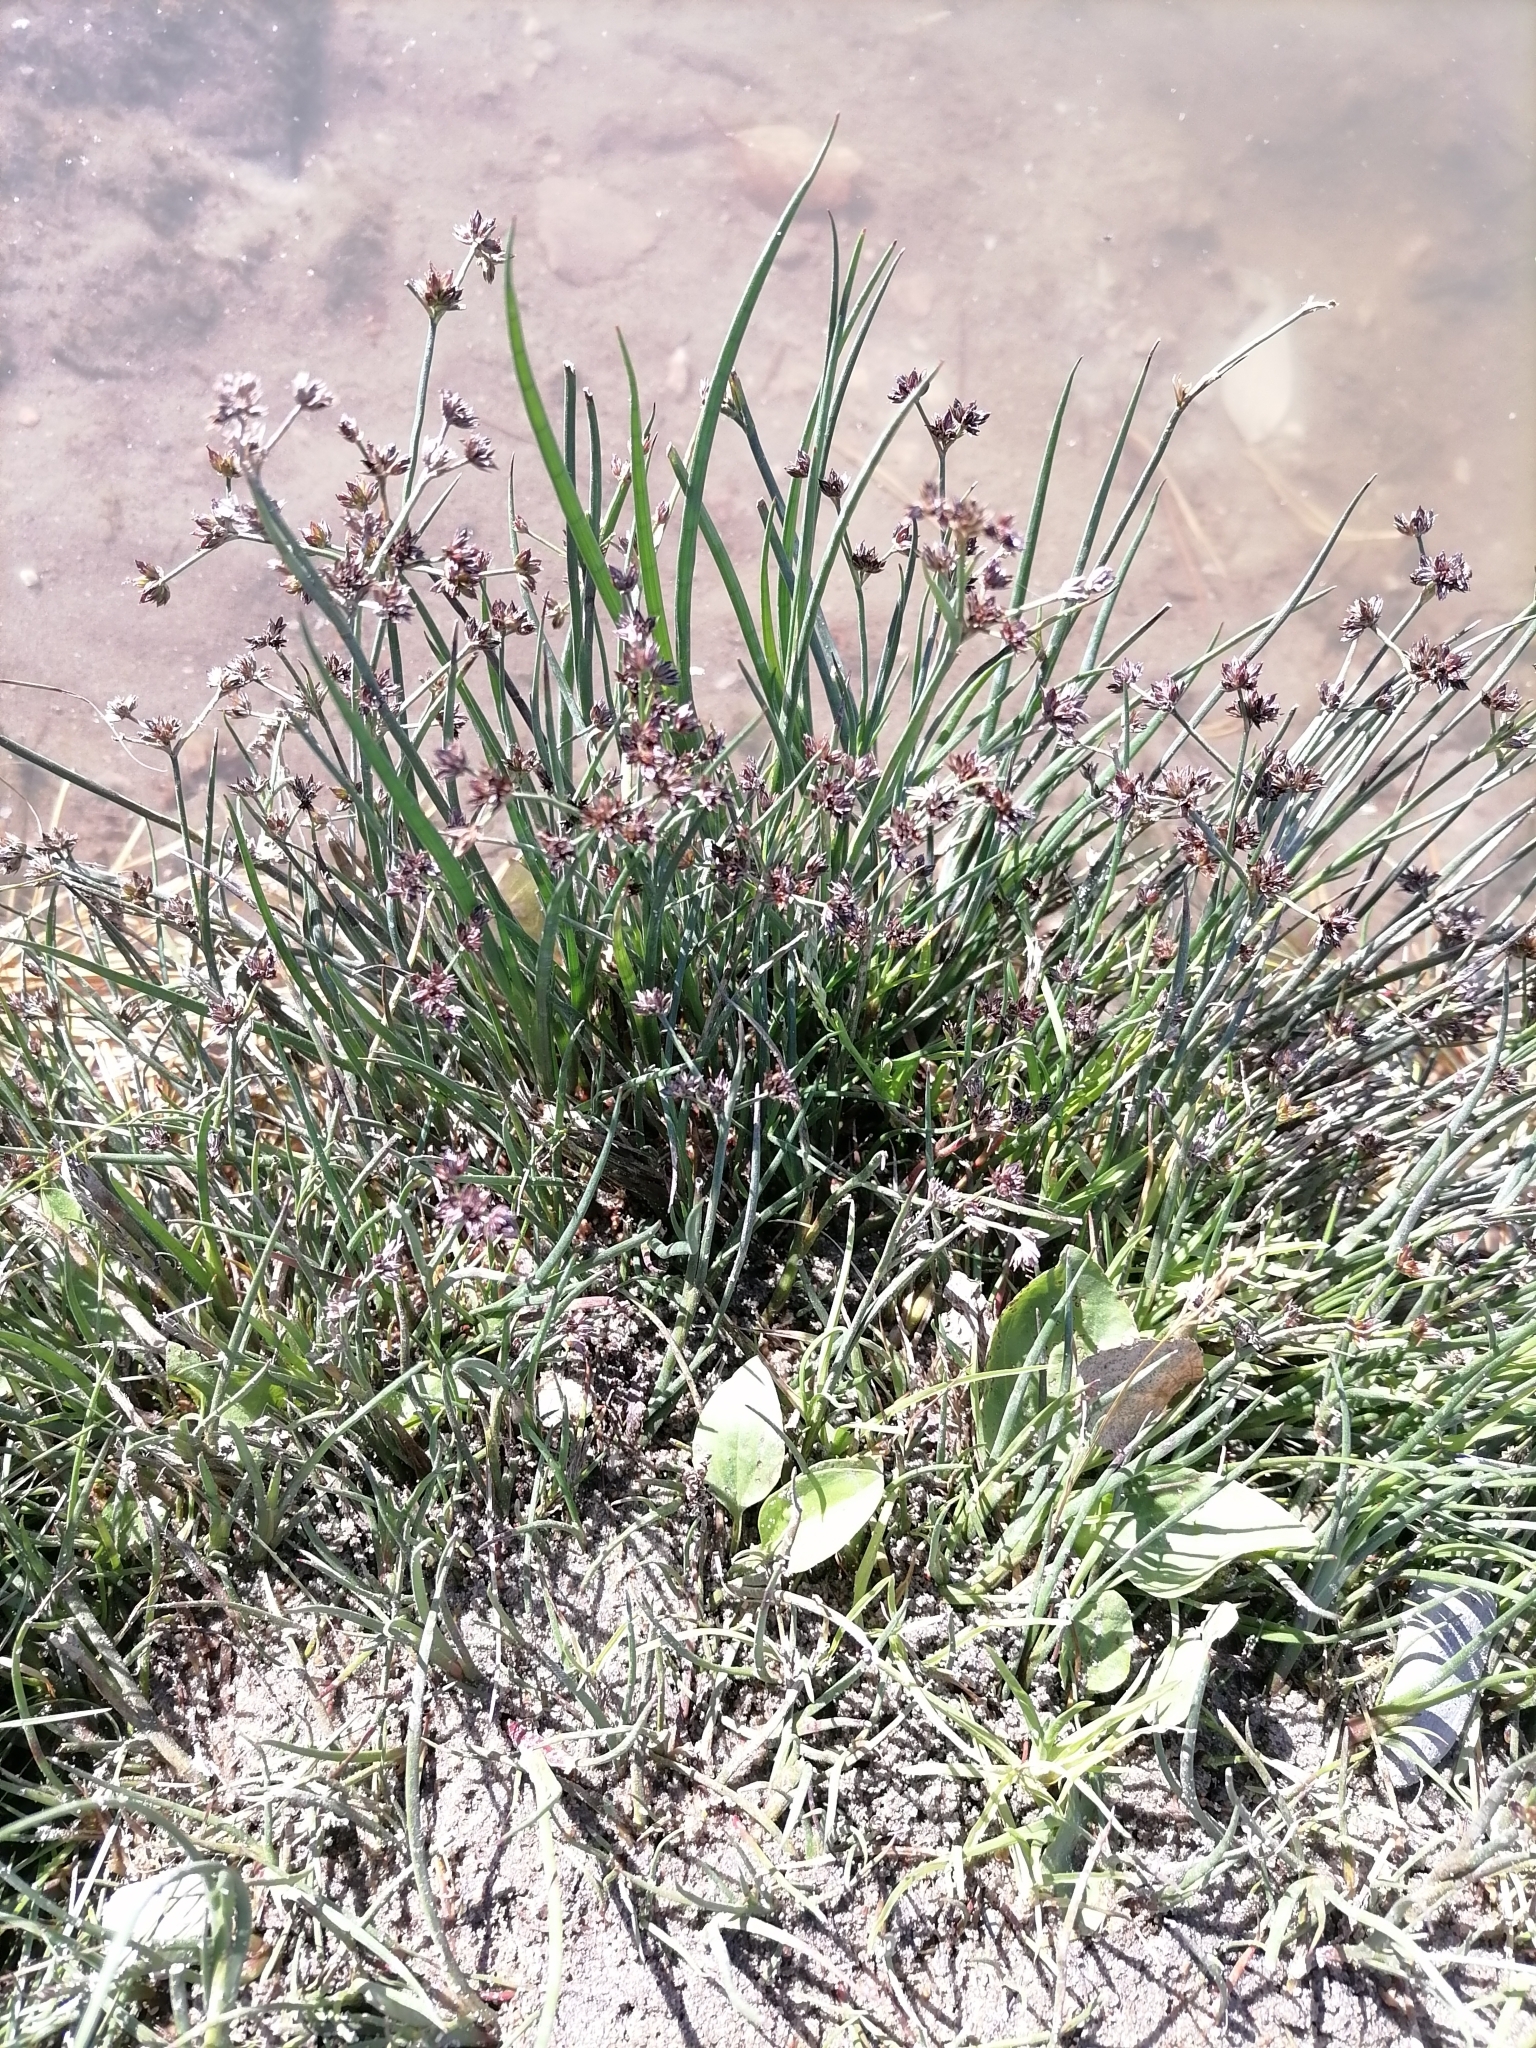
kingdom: Plantae
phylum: Tracheophyta
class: Liliopsida
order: Poales
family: Juncaceae
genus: Juncus
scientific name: Juncus articulatus
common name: Jointed rush
